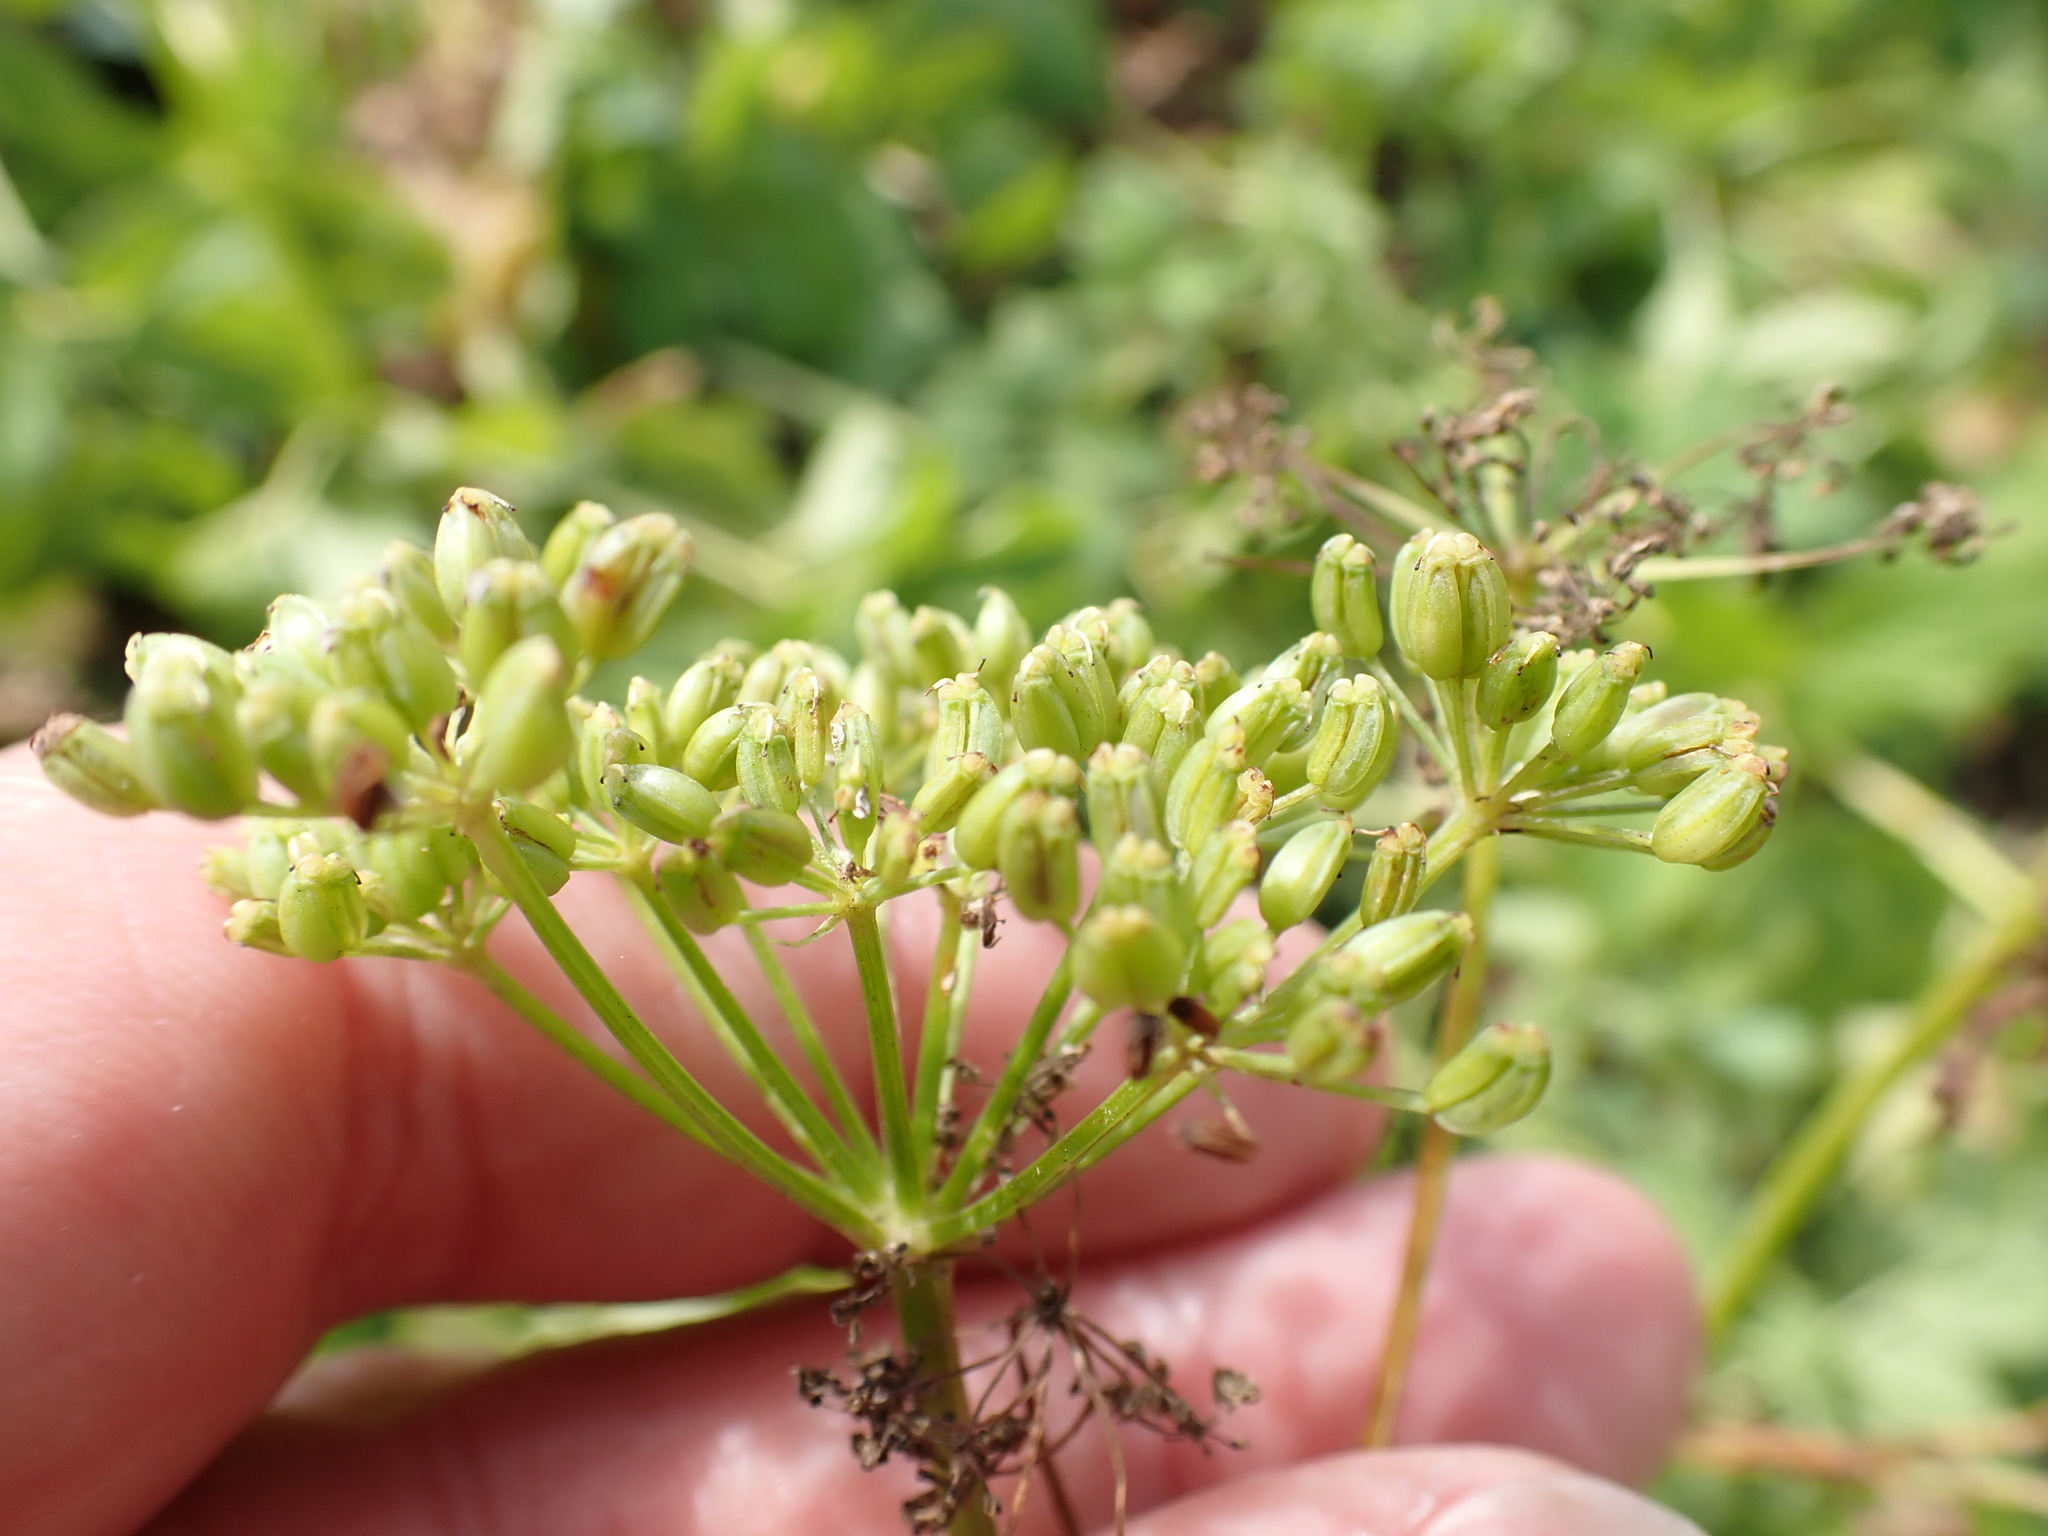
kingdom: Plantae
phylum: Tracheophyta
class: Magnoliopsida
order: Apiales
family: Apiaceae
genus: Aegopodium
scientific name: Aegopodium podagraria
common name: Ground-elder
